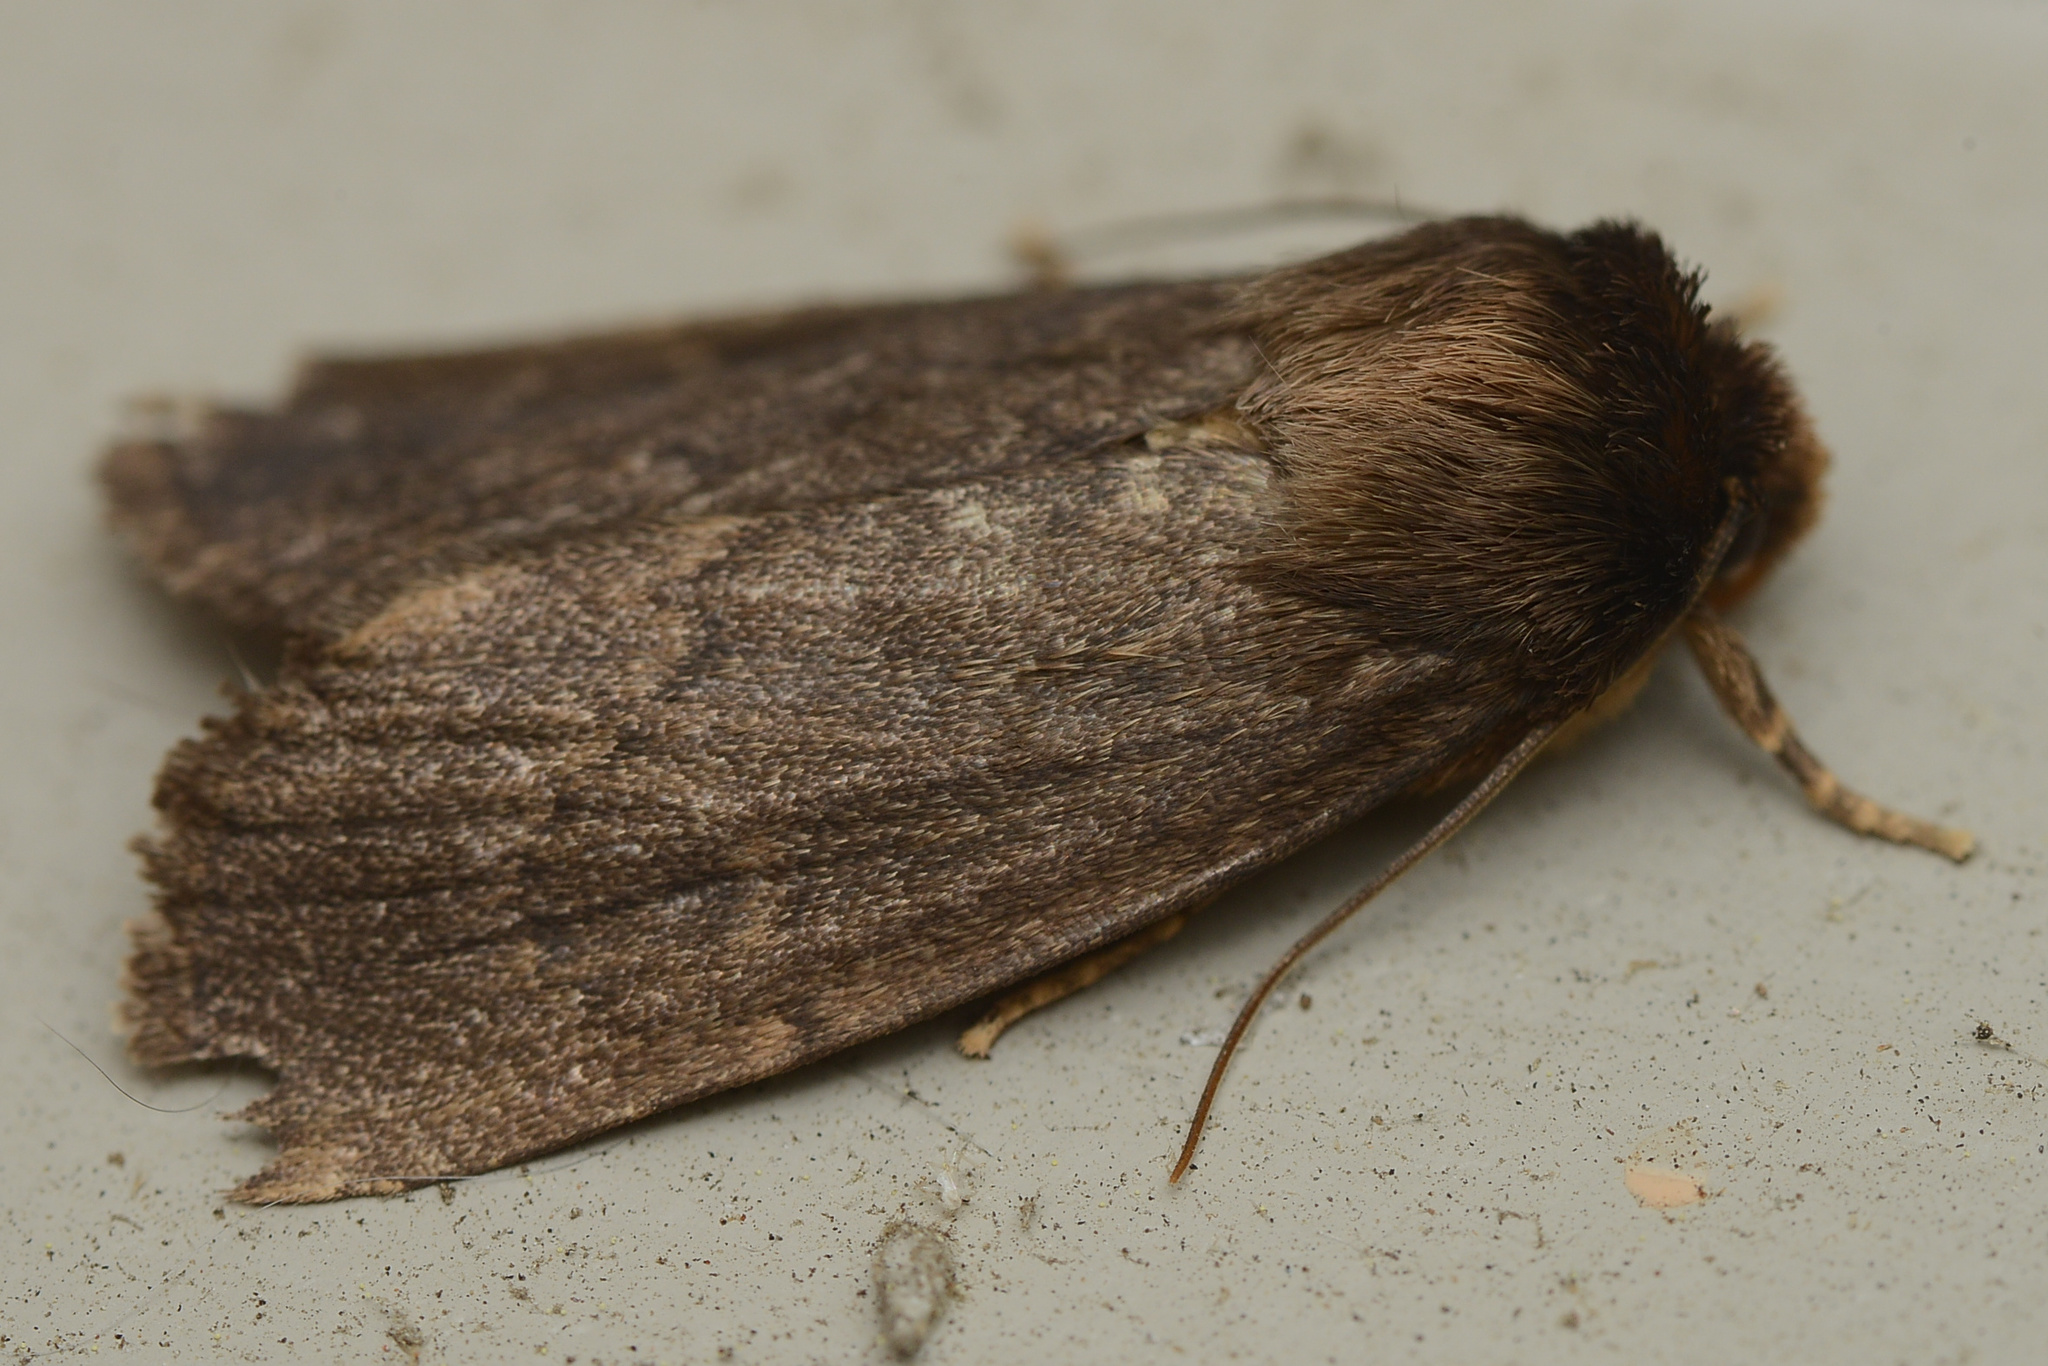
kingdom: Animalia
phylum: Arthropoda
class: Insecta
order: Lepidoptera
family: Noctuidae
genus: Bityla
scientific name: Bityla defigurata
